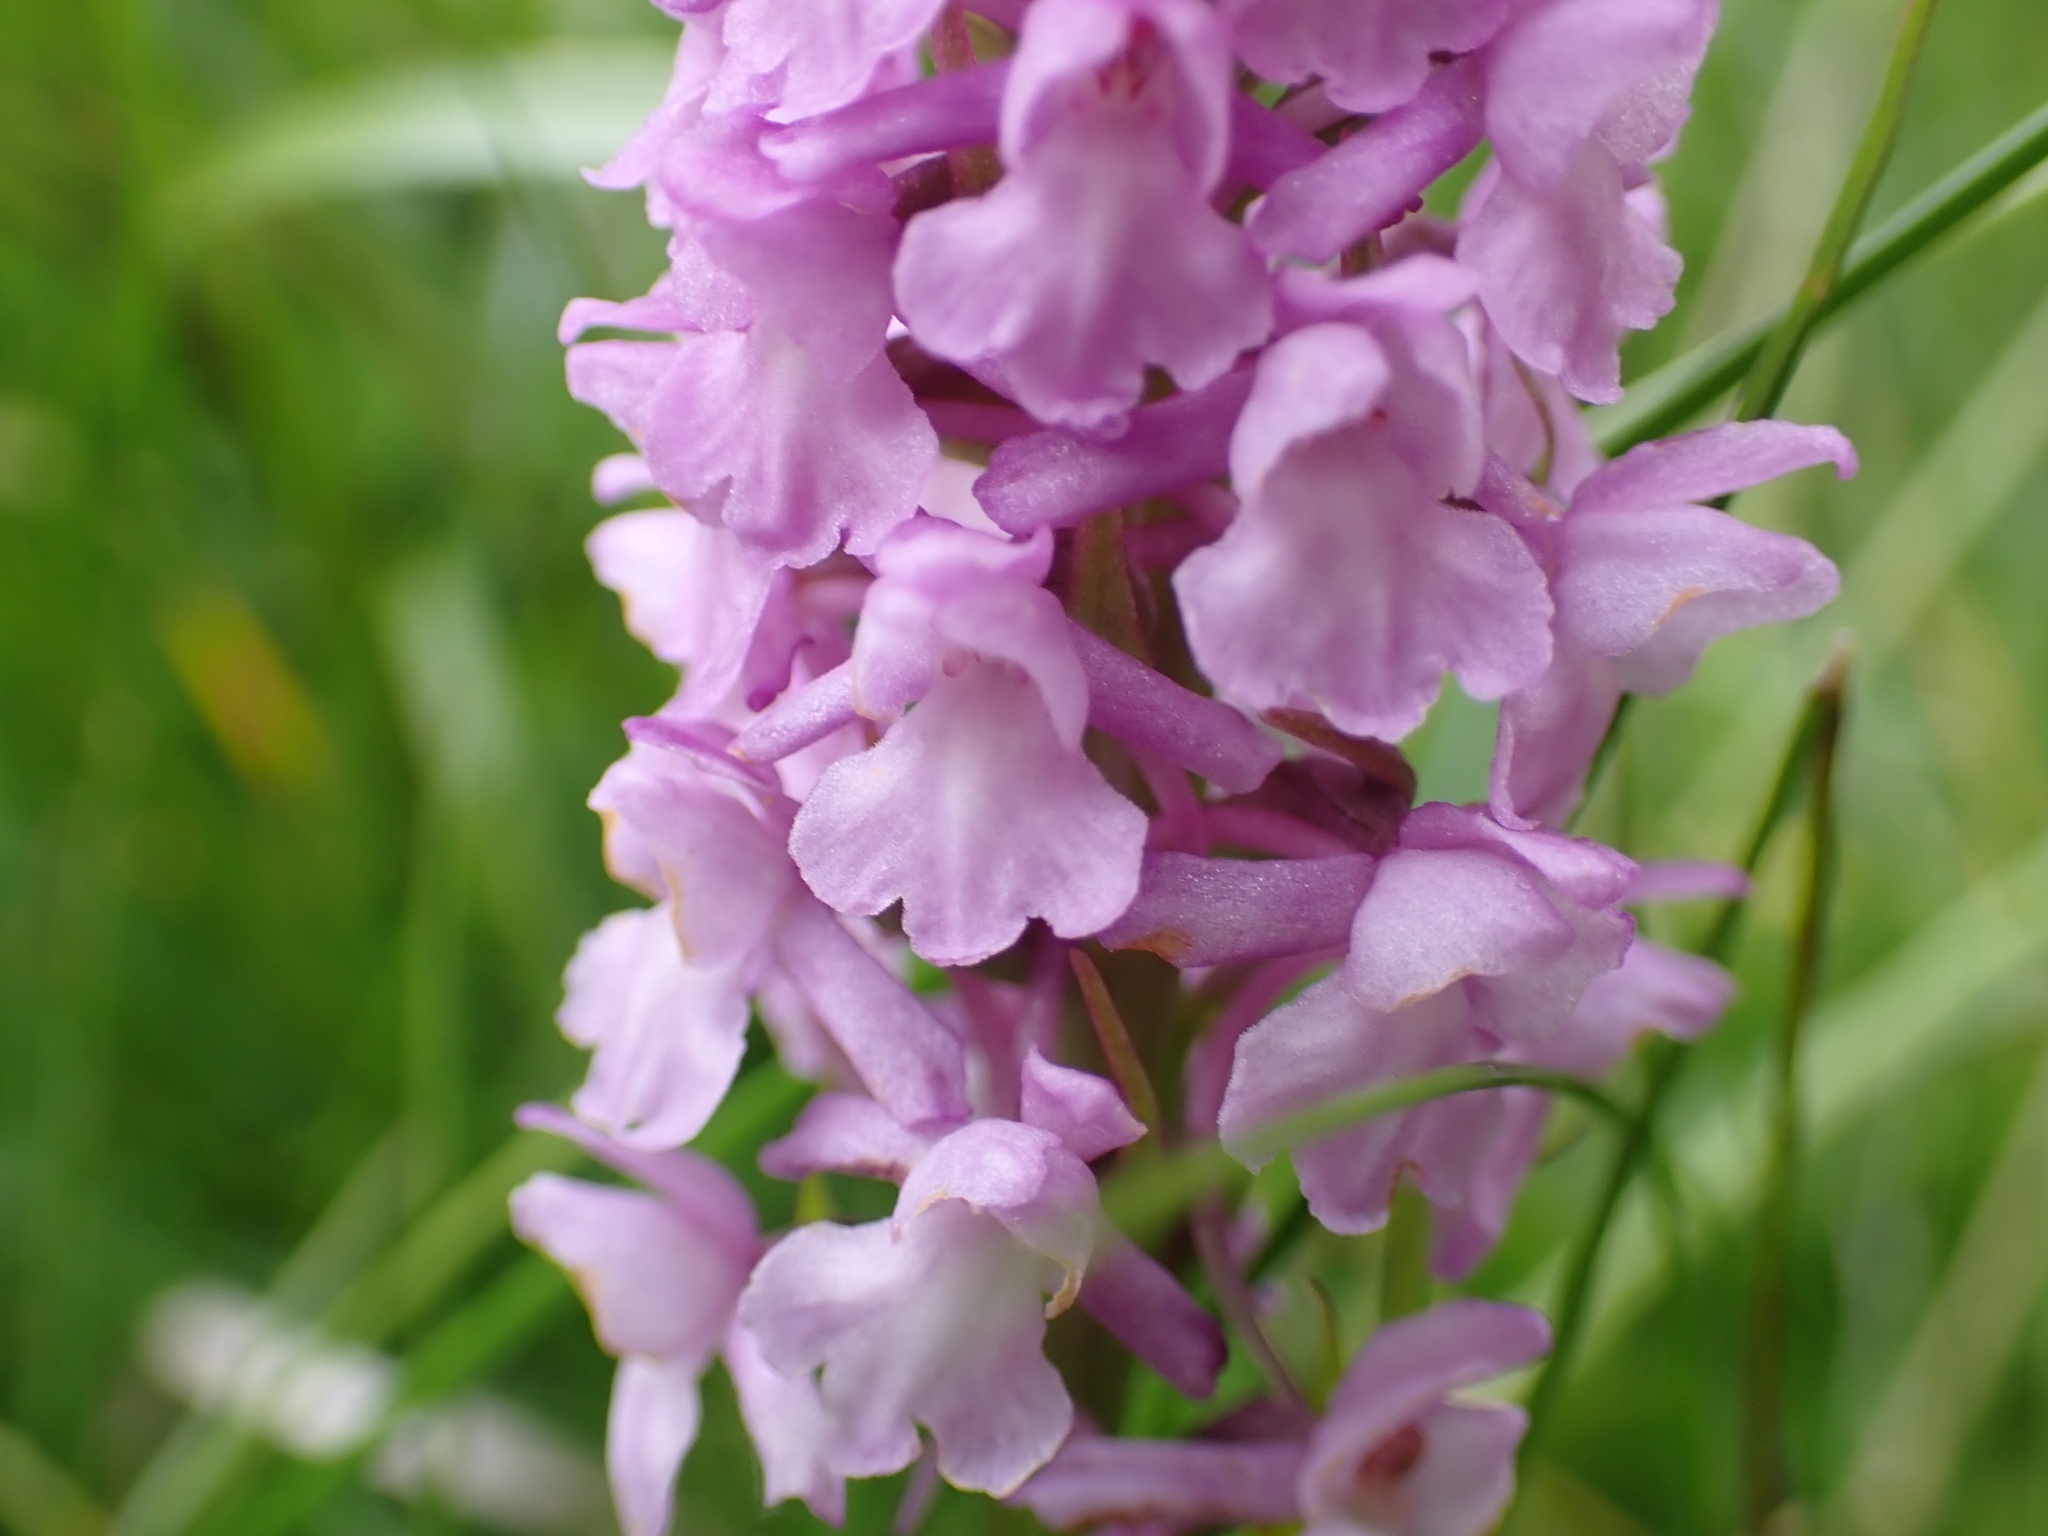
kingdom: Plantae
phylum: Tracheophyta
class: Liliopsida
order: Asparagales
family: Orchidaceae
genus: Gymnadenia
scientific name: Gymnadenia conopsea
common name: Fragrant orchid
